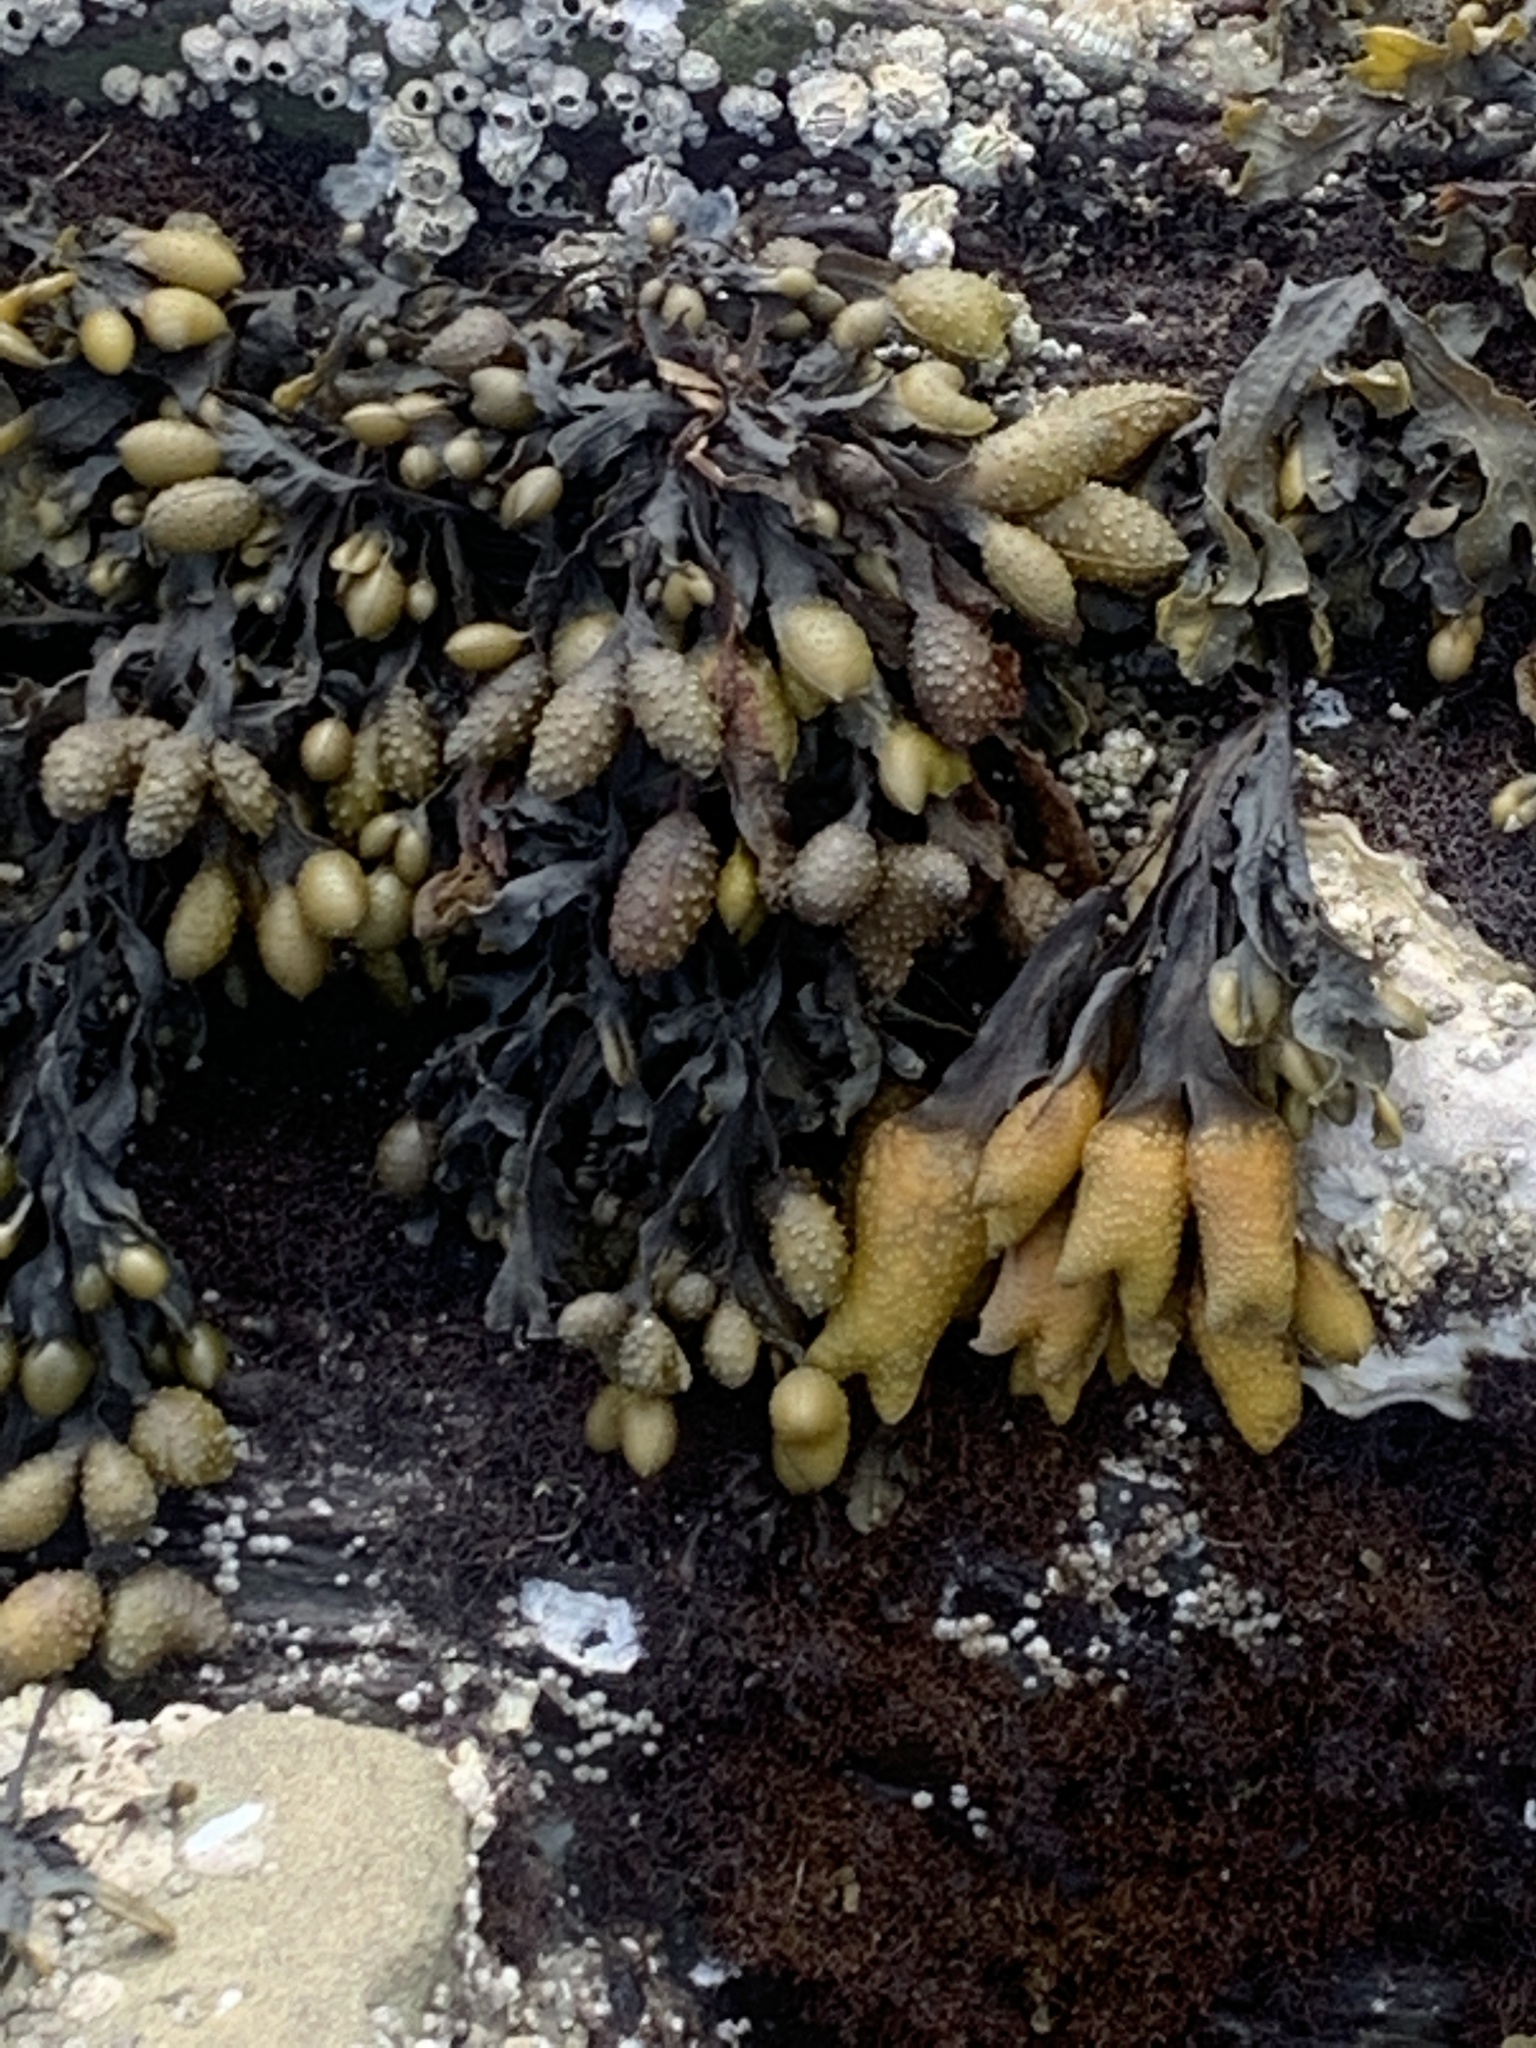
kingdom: Chromista
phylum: Ochrophyta
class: Phaeophyceae
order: Fucales
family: Fucaceae
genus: Fucus
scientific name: Fucus distichus
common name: Rockweed
